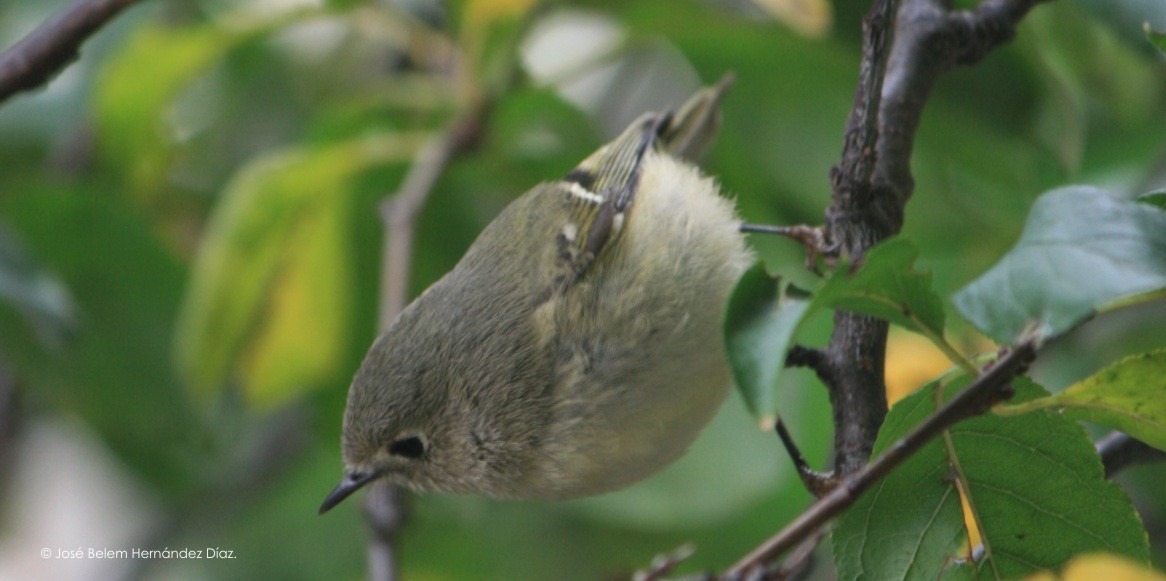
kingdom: Animalia
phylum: Chordata
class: Aves
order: Passeriformes
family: Regulidae
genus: Regulus
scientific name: Regulus calendula
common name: Ruby-crowned kinglet
